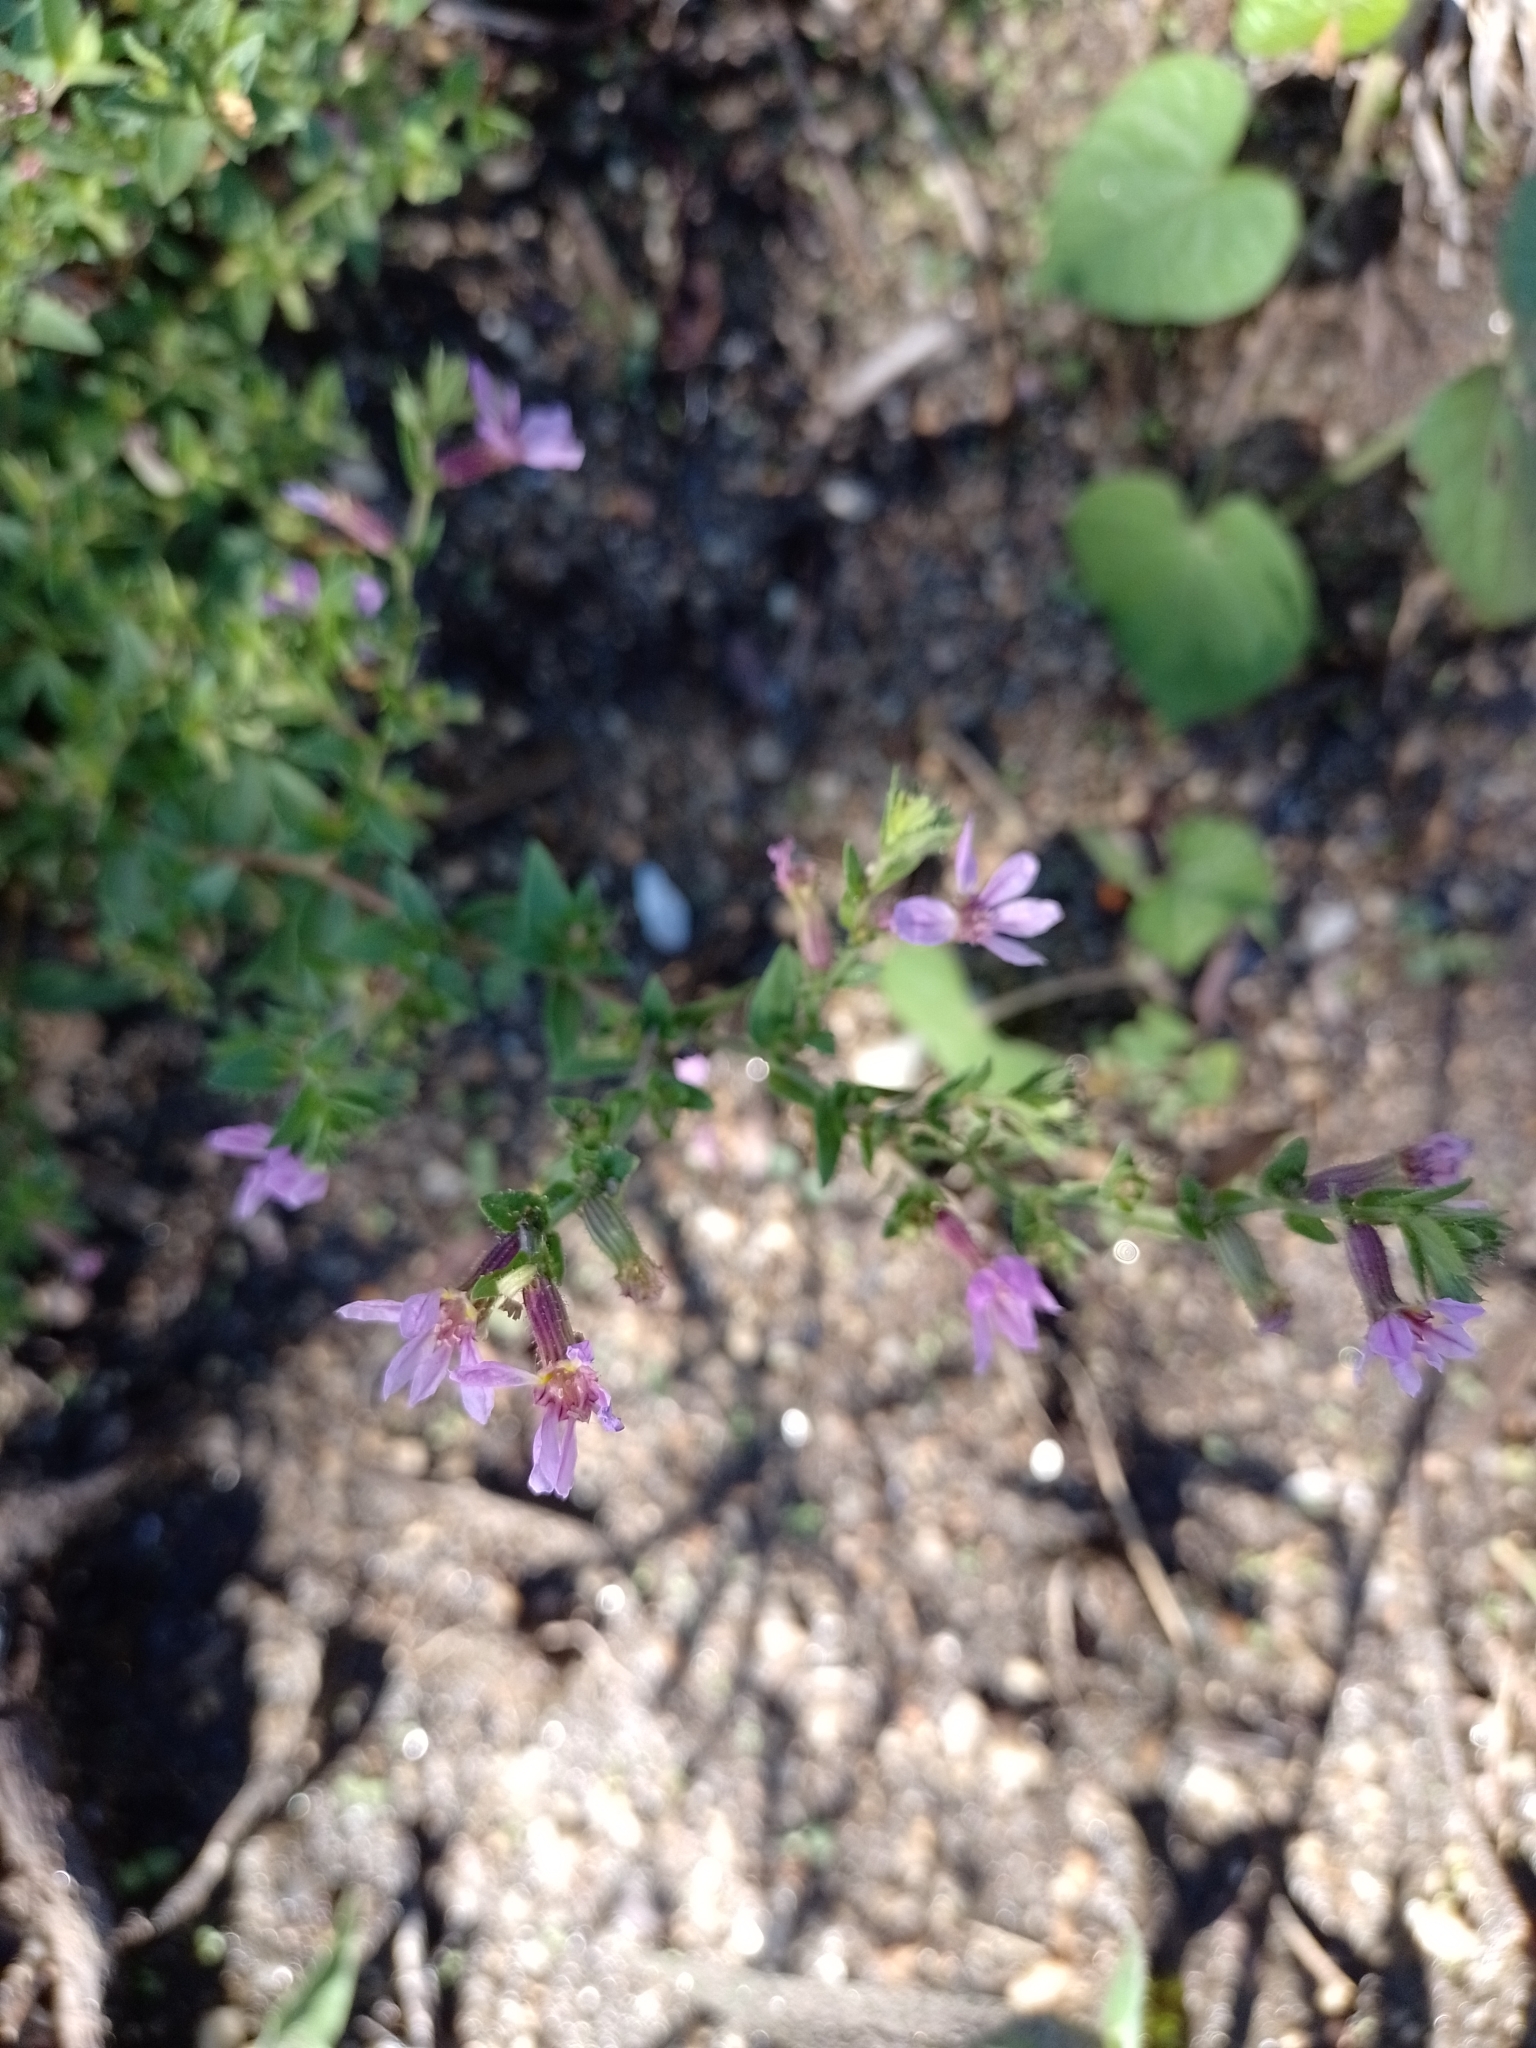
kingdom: Plantae
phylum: Tracheophyta
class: Magnoliopsida
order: Myrtales
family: Lythraceae
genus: Cuphea
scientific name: Cuphea glutinosa
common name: Sticky waxweed
